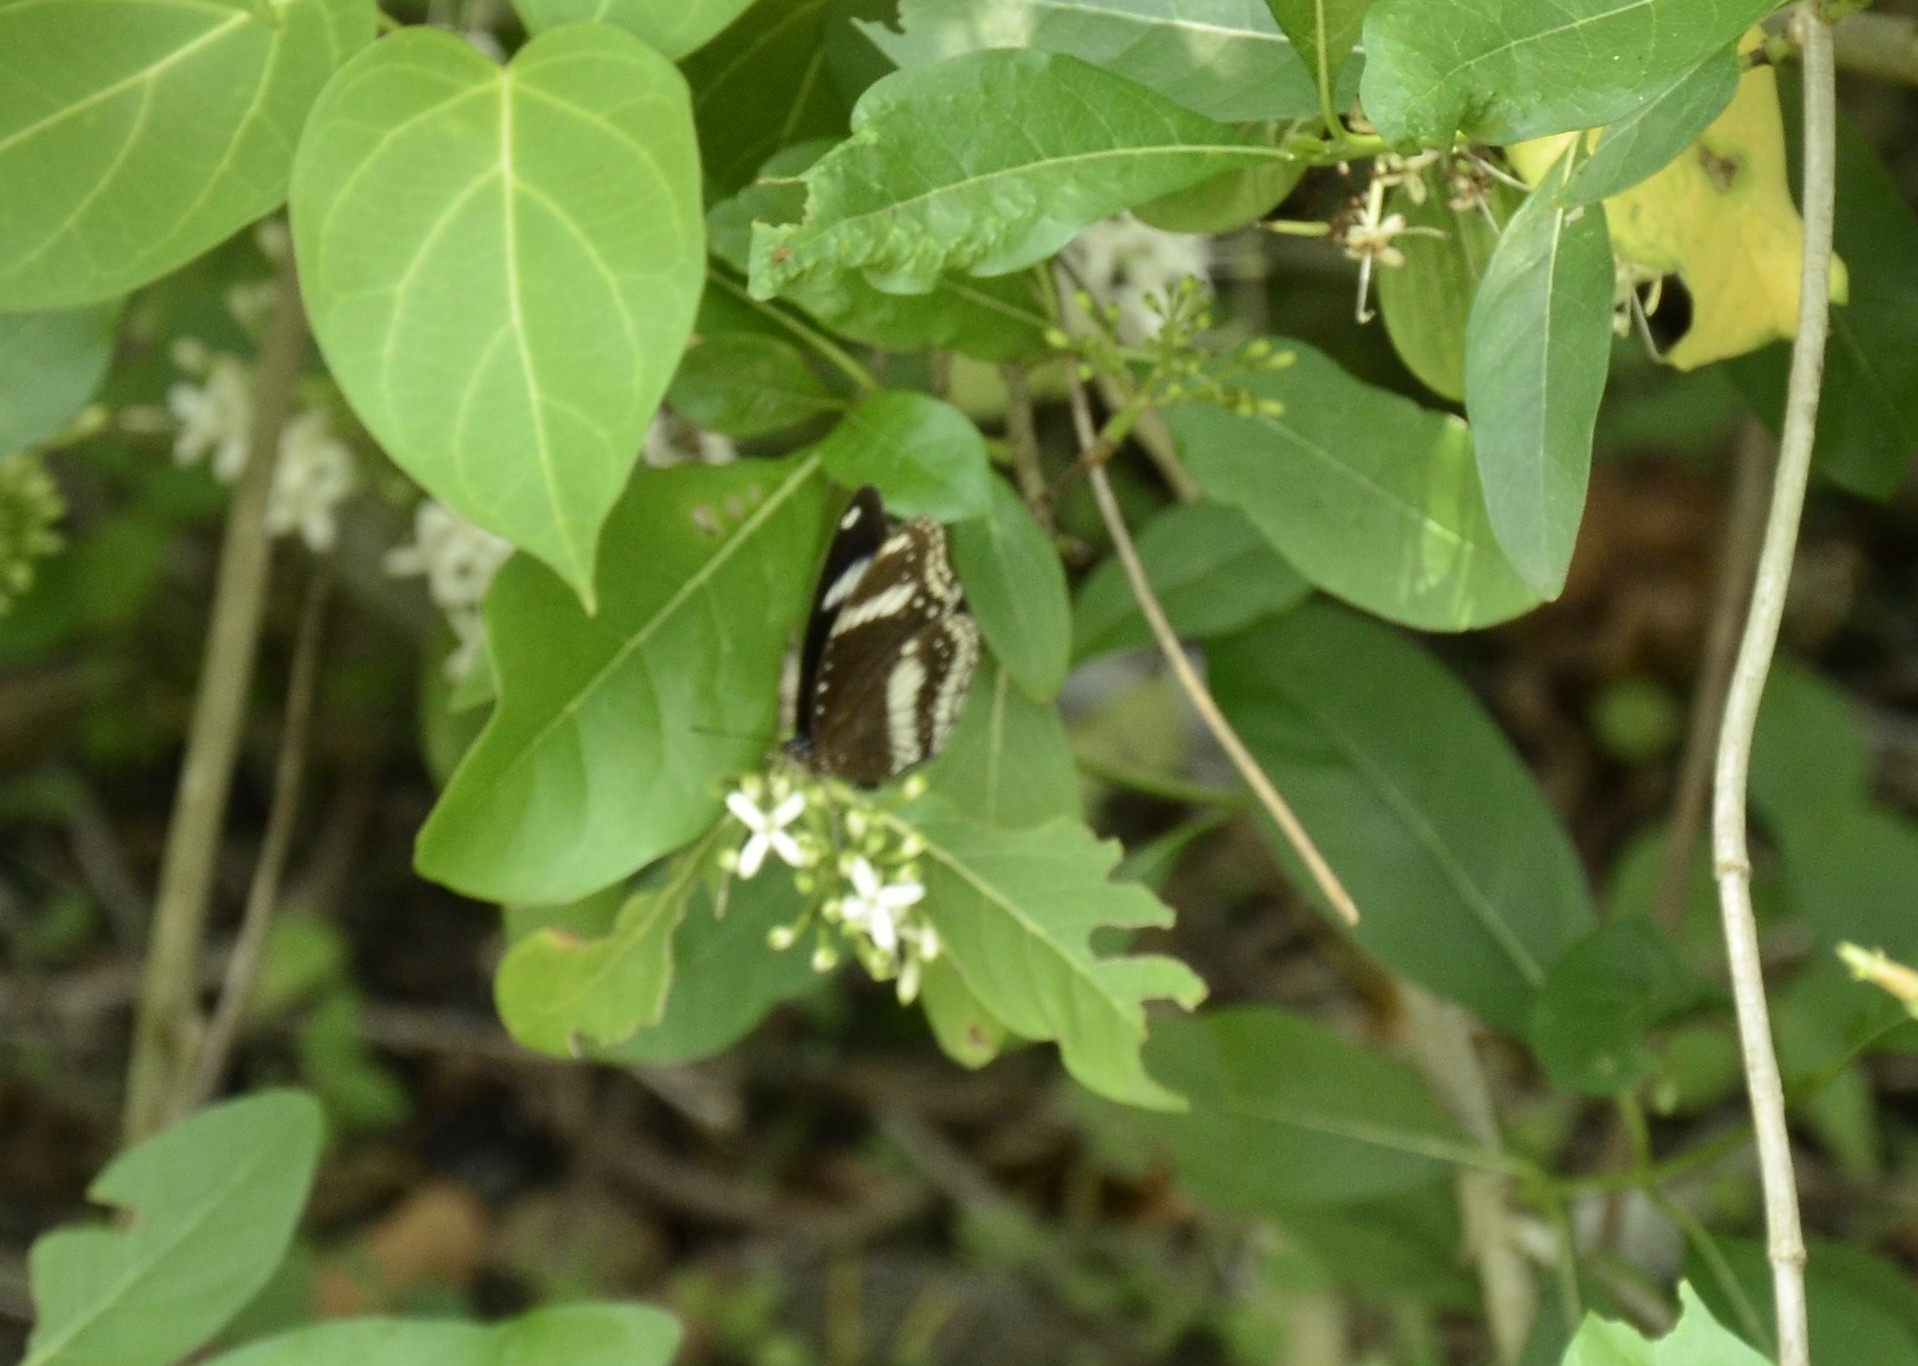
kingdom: Animalia
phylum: Arthropoda
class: Insecta
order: Lepidoptera
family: Nymphalidae
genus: Hypolimnas
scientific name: Hypolimnas bolina
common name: Great eggfly
